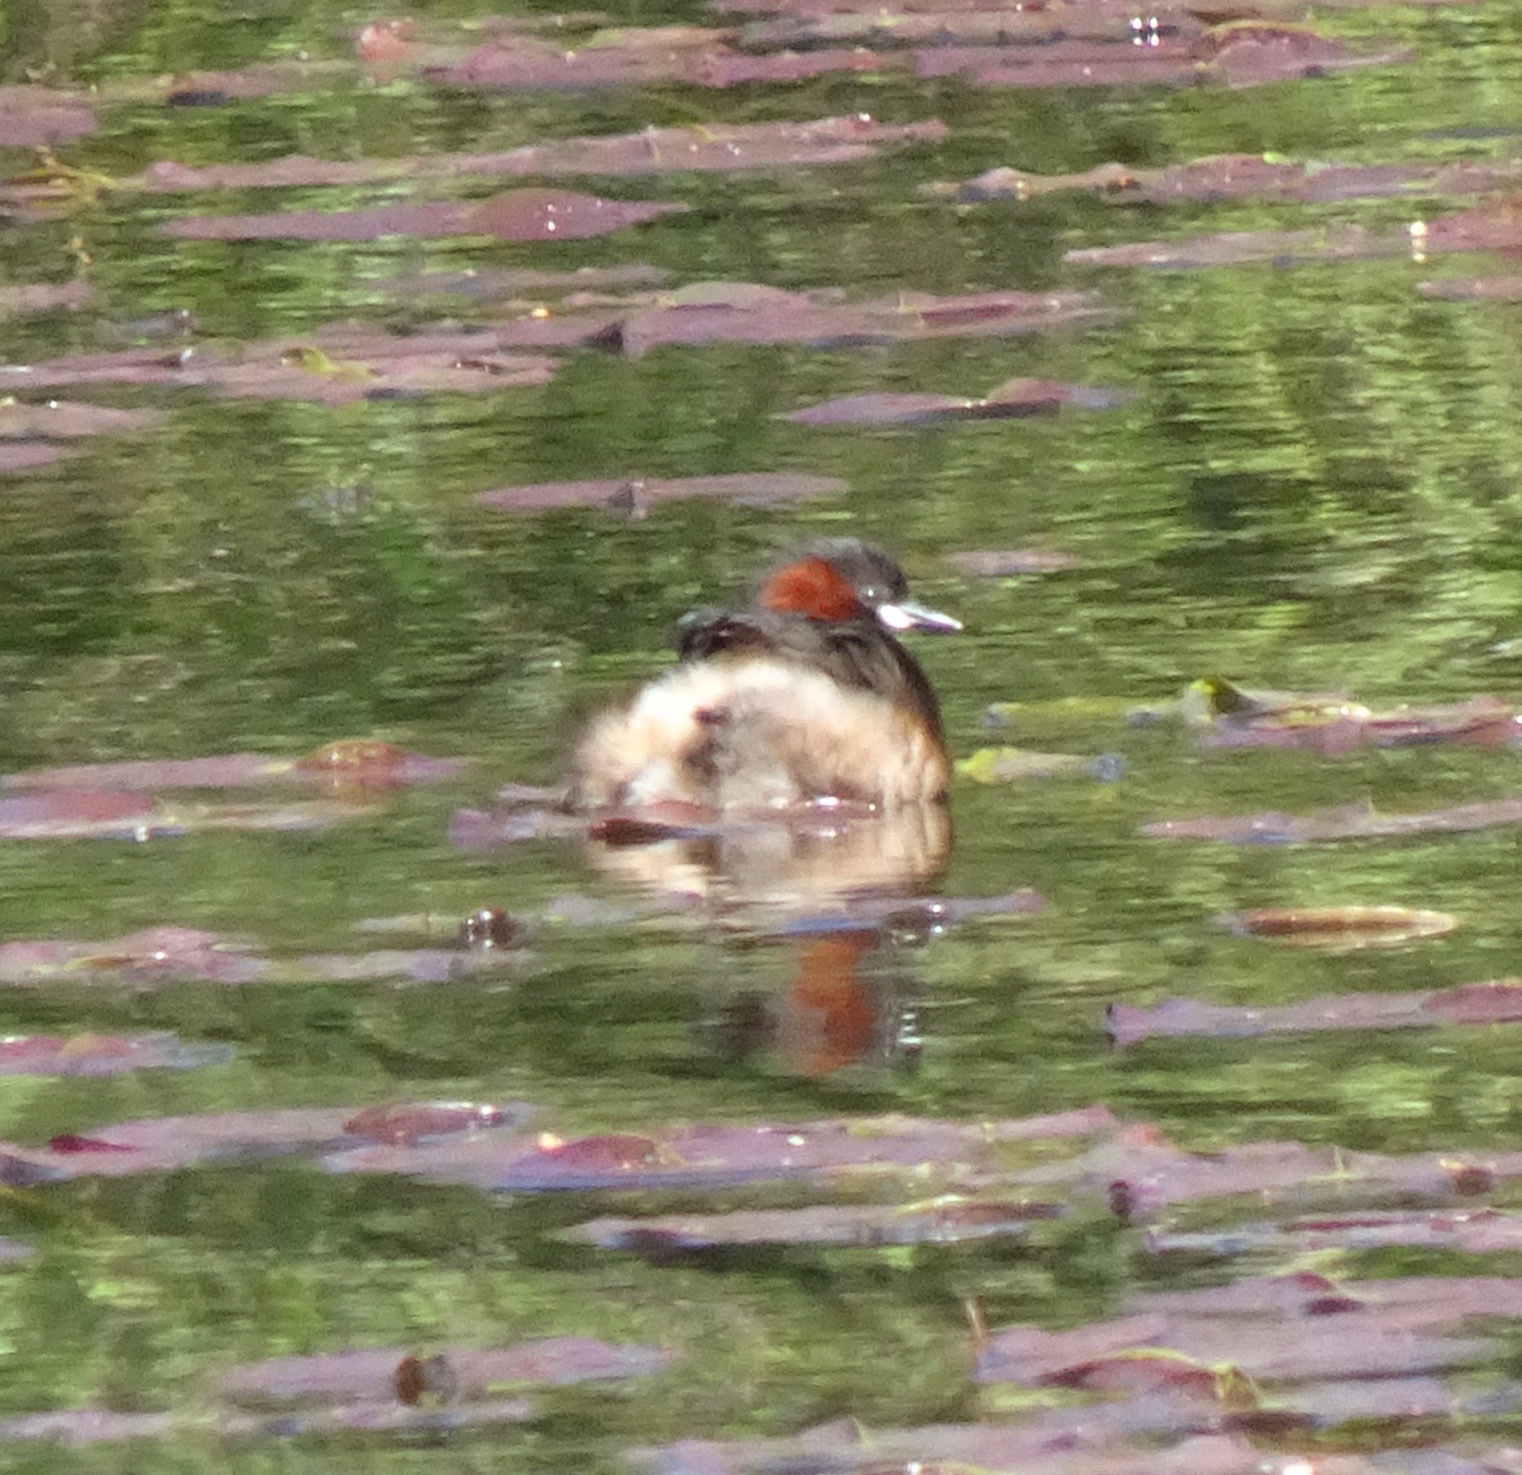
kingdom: Animalia
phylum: Chordata
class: Aves
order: Podicipediformes
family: Podicipedidae
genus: Tachybaptus
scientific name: Tachybaptus ruficollis
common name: Little grebe
